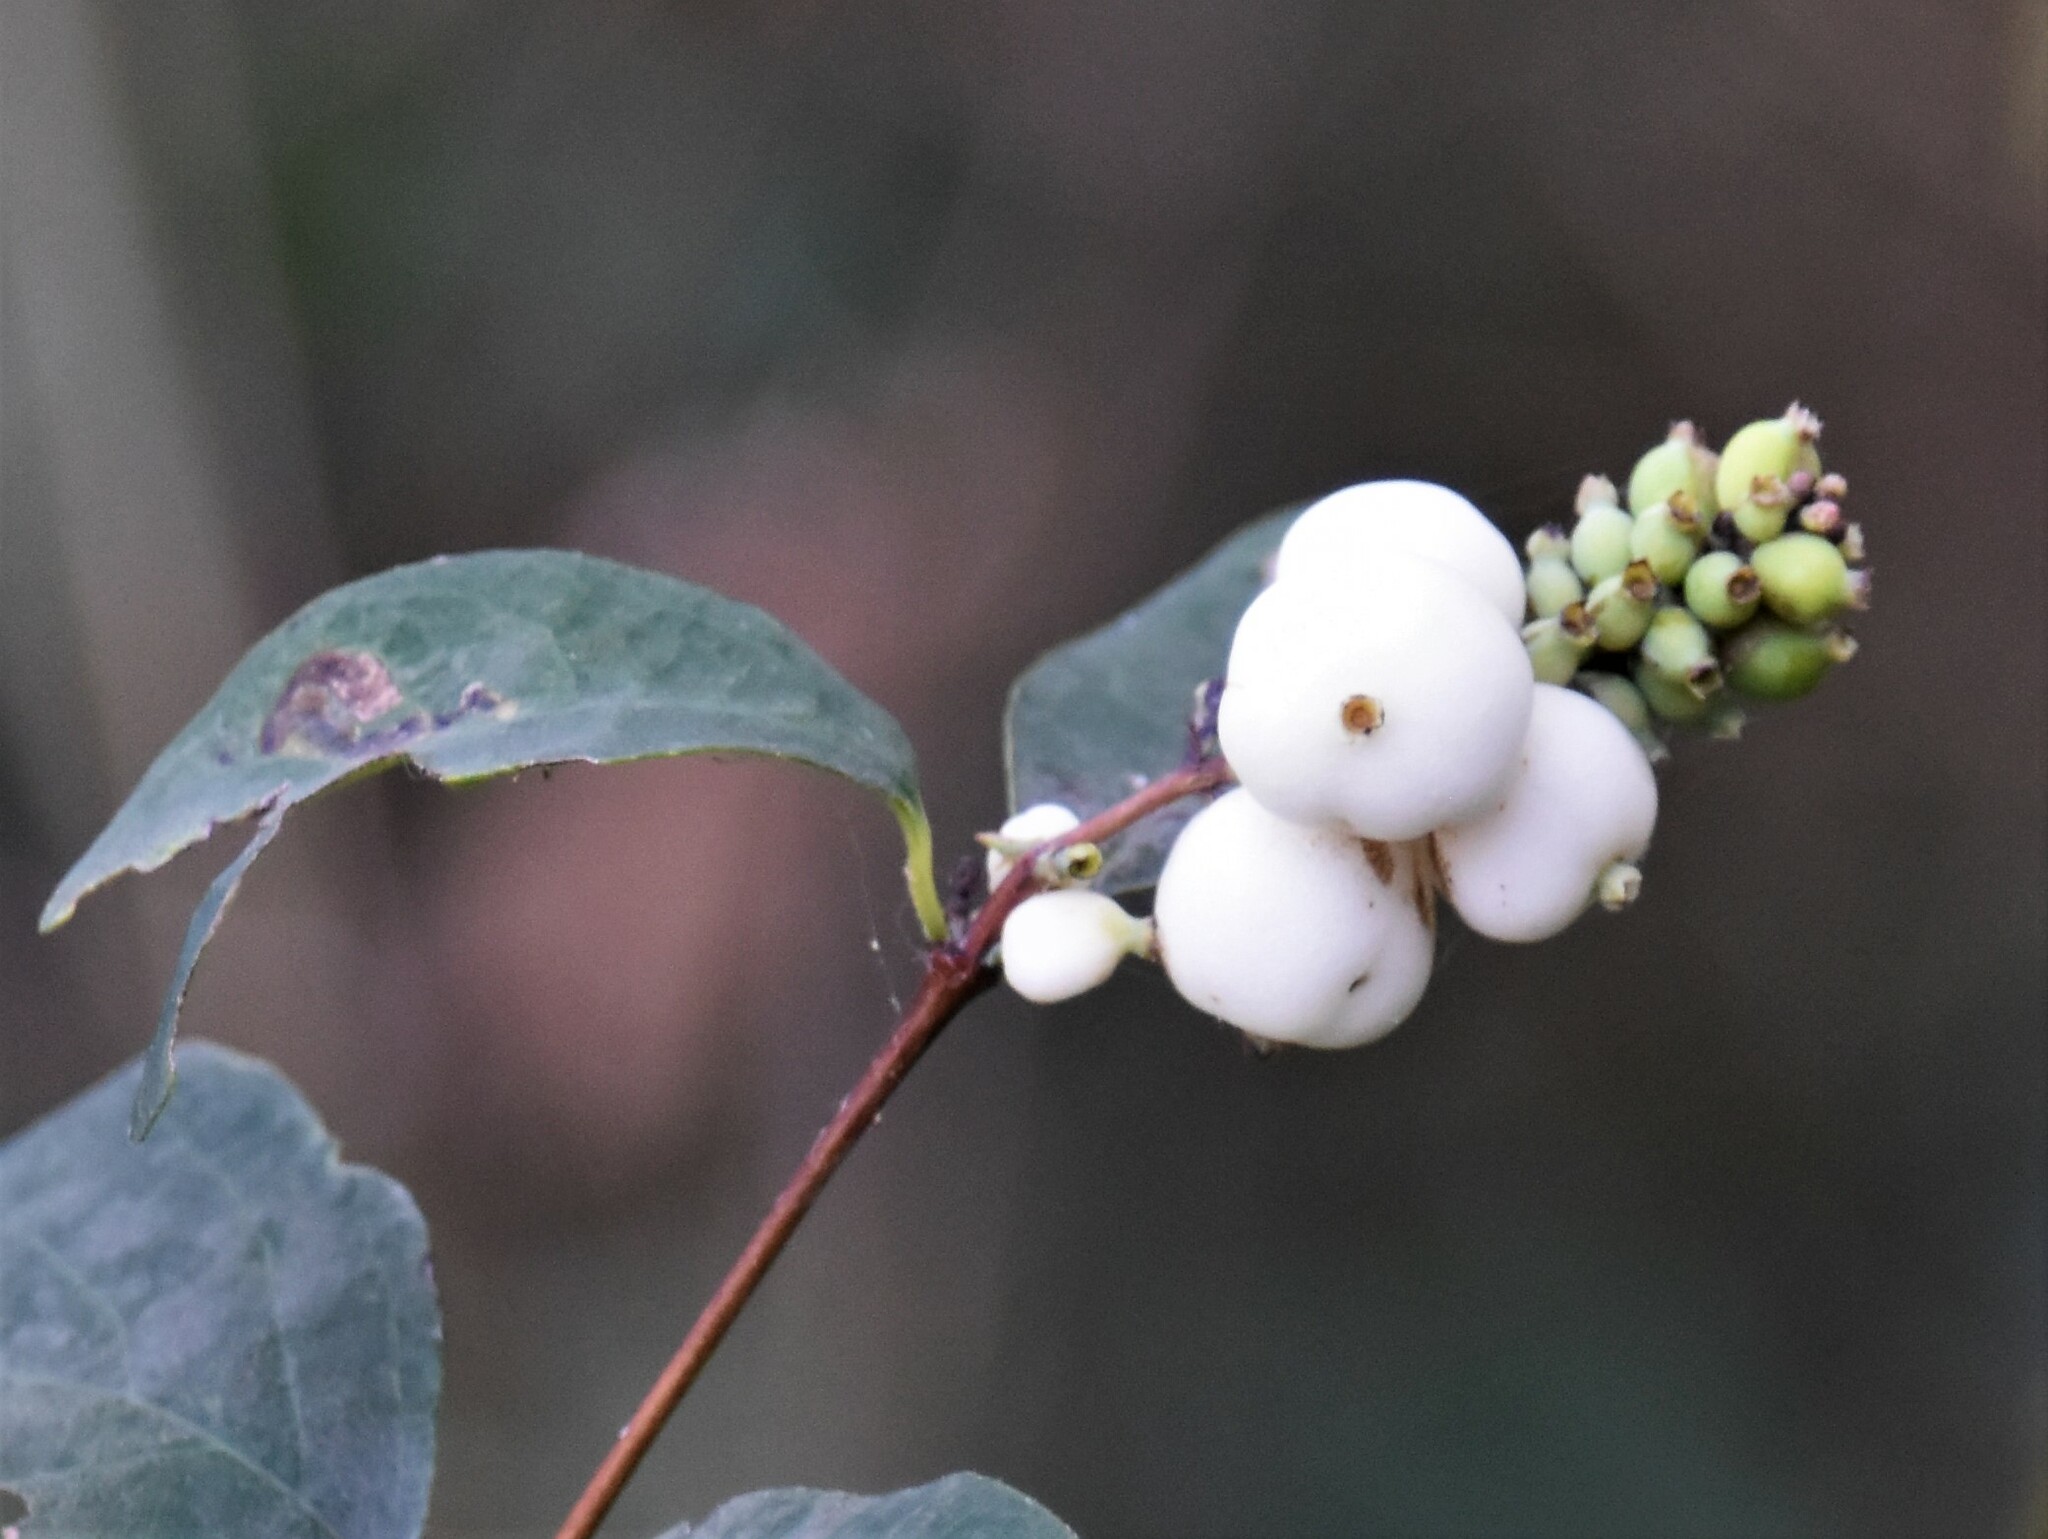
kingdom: Plantae
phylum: Tracheophyta
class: Magnoliopsida
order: Dipsacales
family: Caprifoliaceae
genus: Symphoricarpos
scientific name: Symphoricarpos albus
